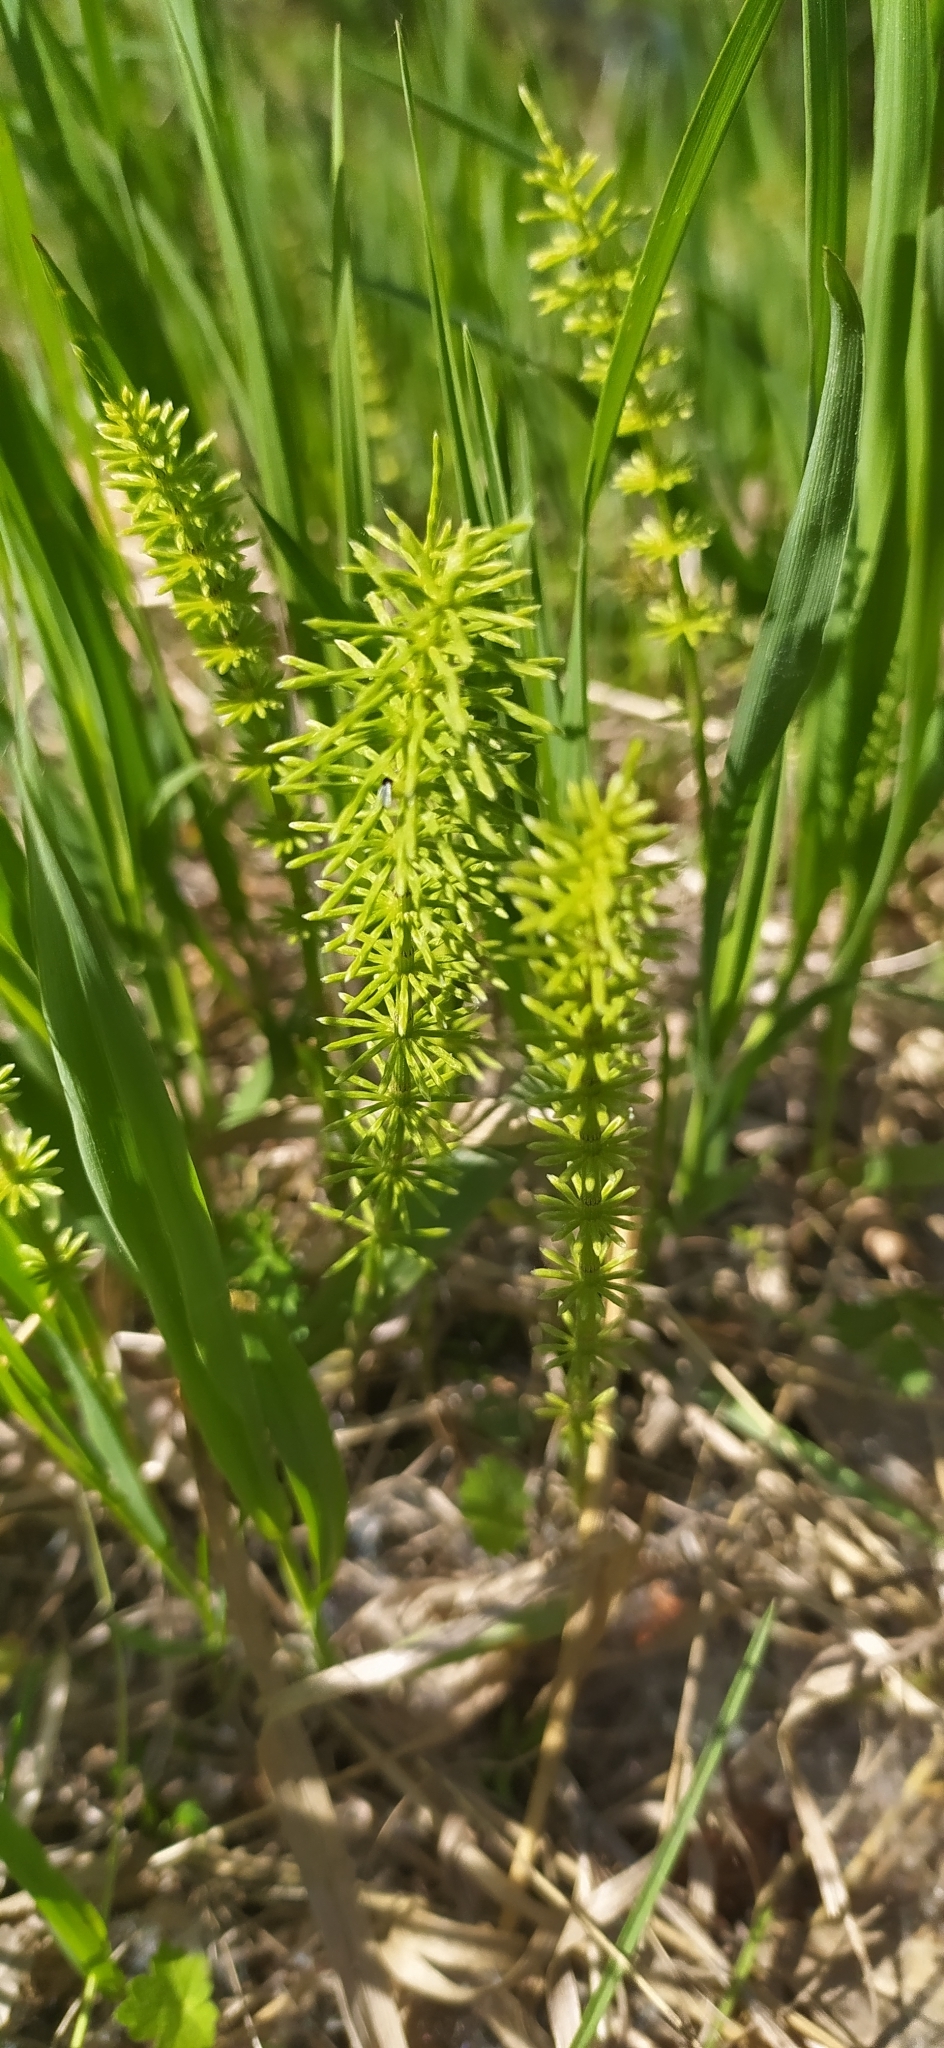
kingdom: Plantae
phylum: Tracheophyta
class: Polypodiopsida
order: Equisetales
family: Equisetaceae
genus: Equisetum
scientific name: Equisetum pratense
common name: Meadow horsetail
